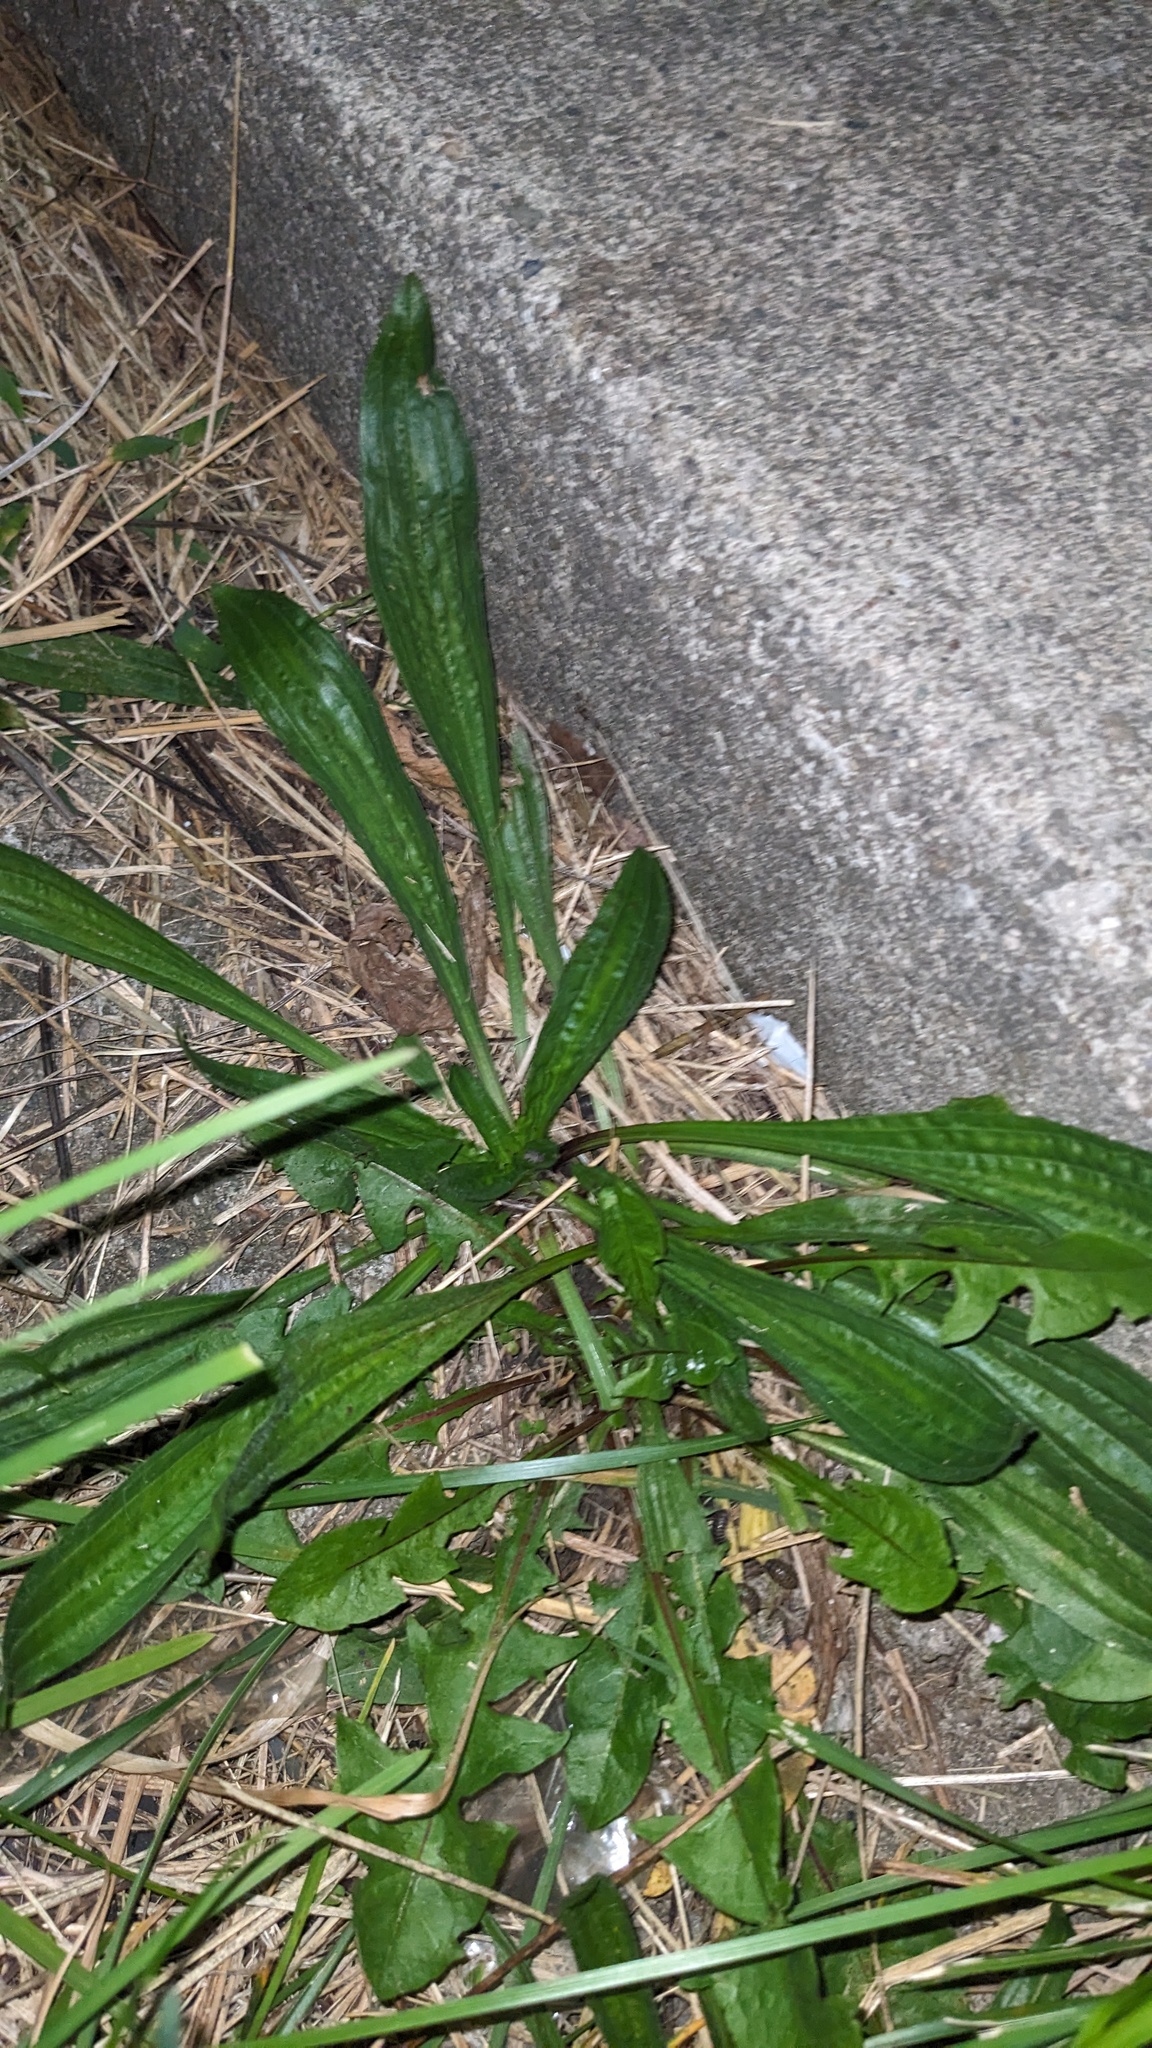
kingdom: Plantae
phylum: Tracheophyta
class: Magnoliopsida
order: Lamiales
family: Plantaginaceae
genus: Plantago
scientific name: Plantago lanceolata
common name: Ribwort plantain
